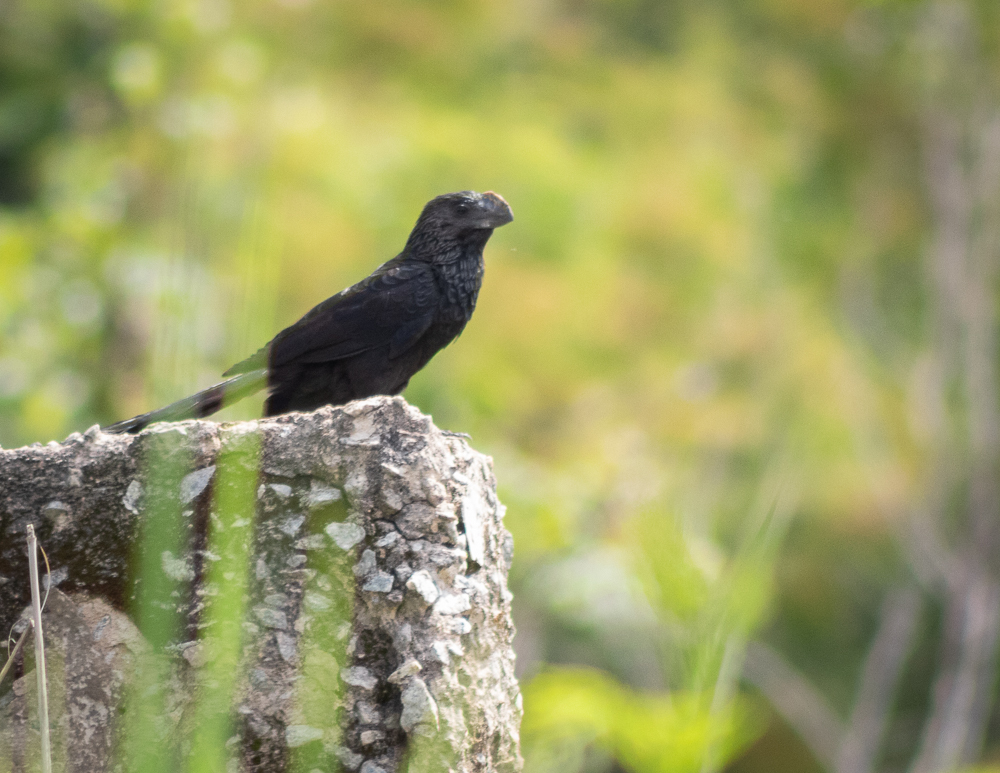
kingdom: Animalia
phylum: Chordata
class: Aves
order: Cuculiformes
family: Cuculidae
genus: Crotophaga
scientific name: Crotophaga ani
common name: Smooth-billed ani
